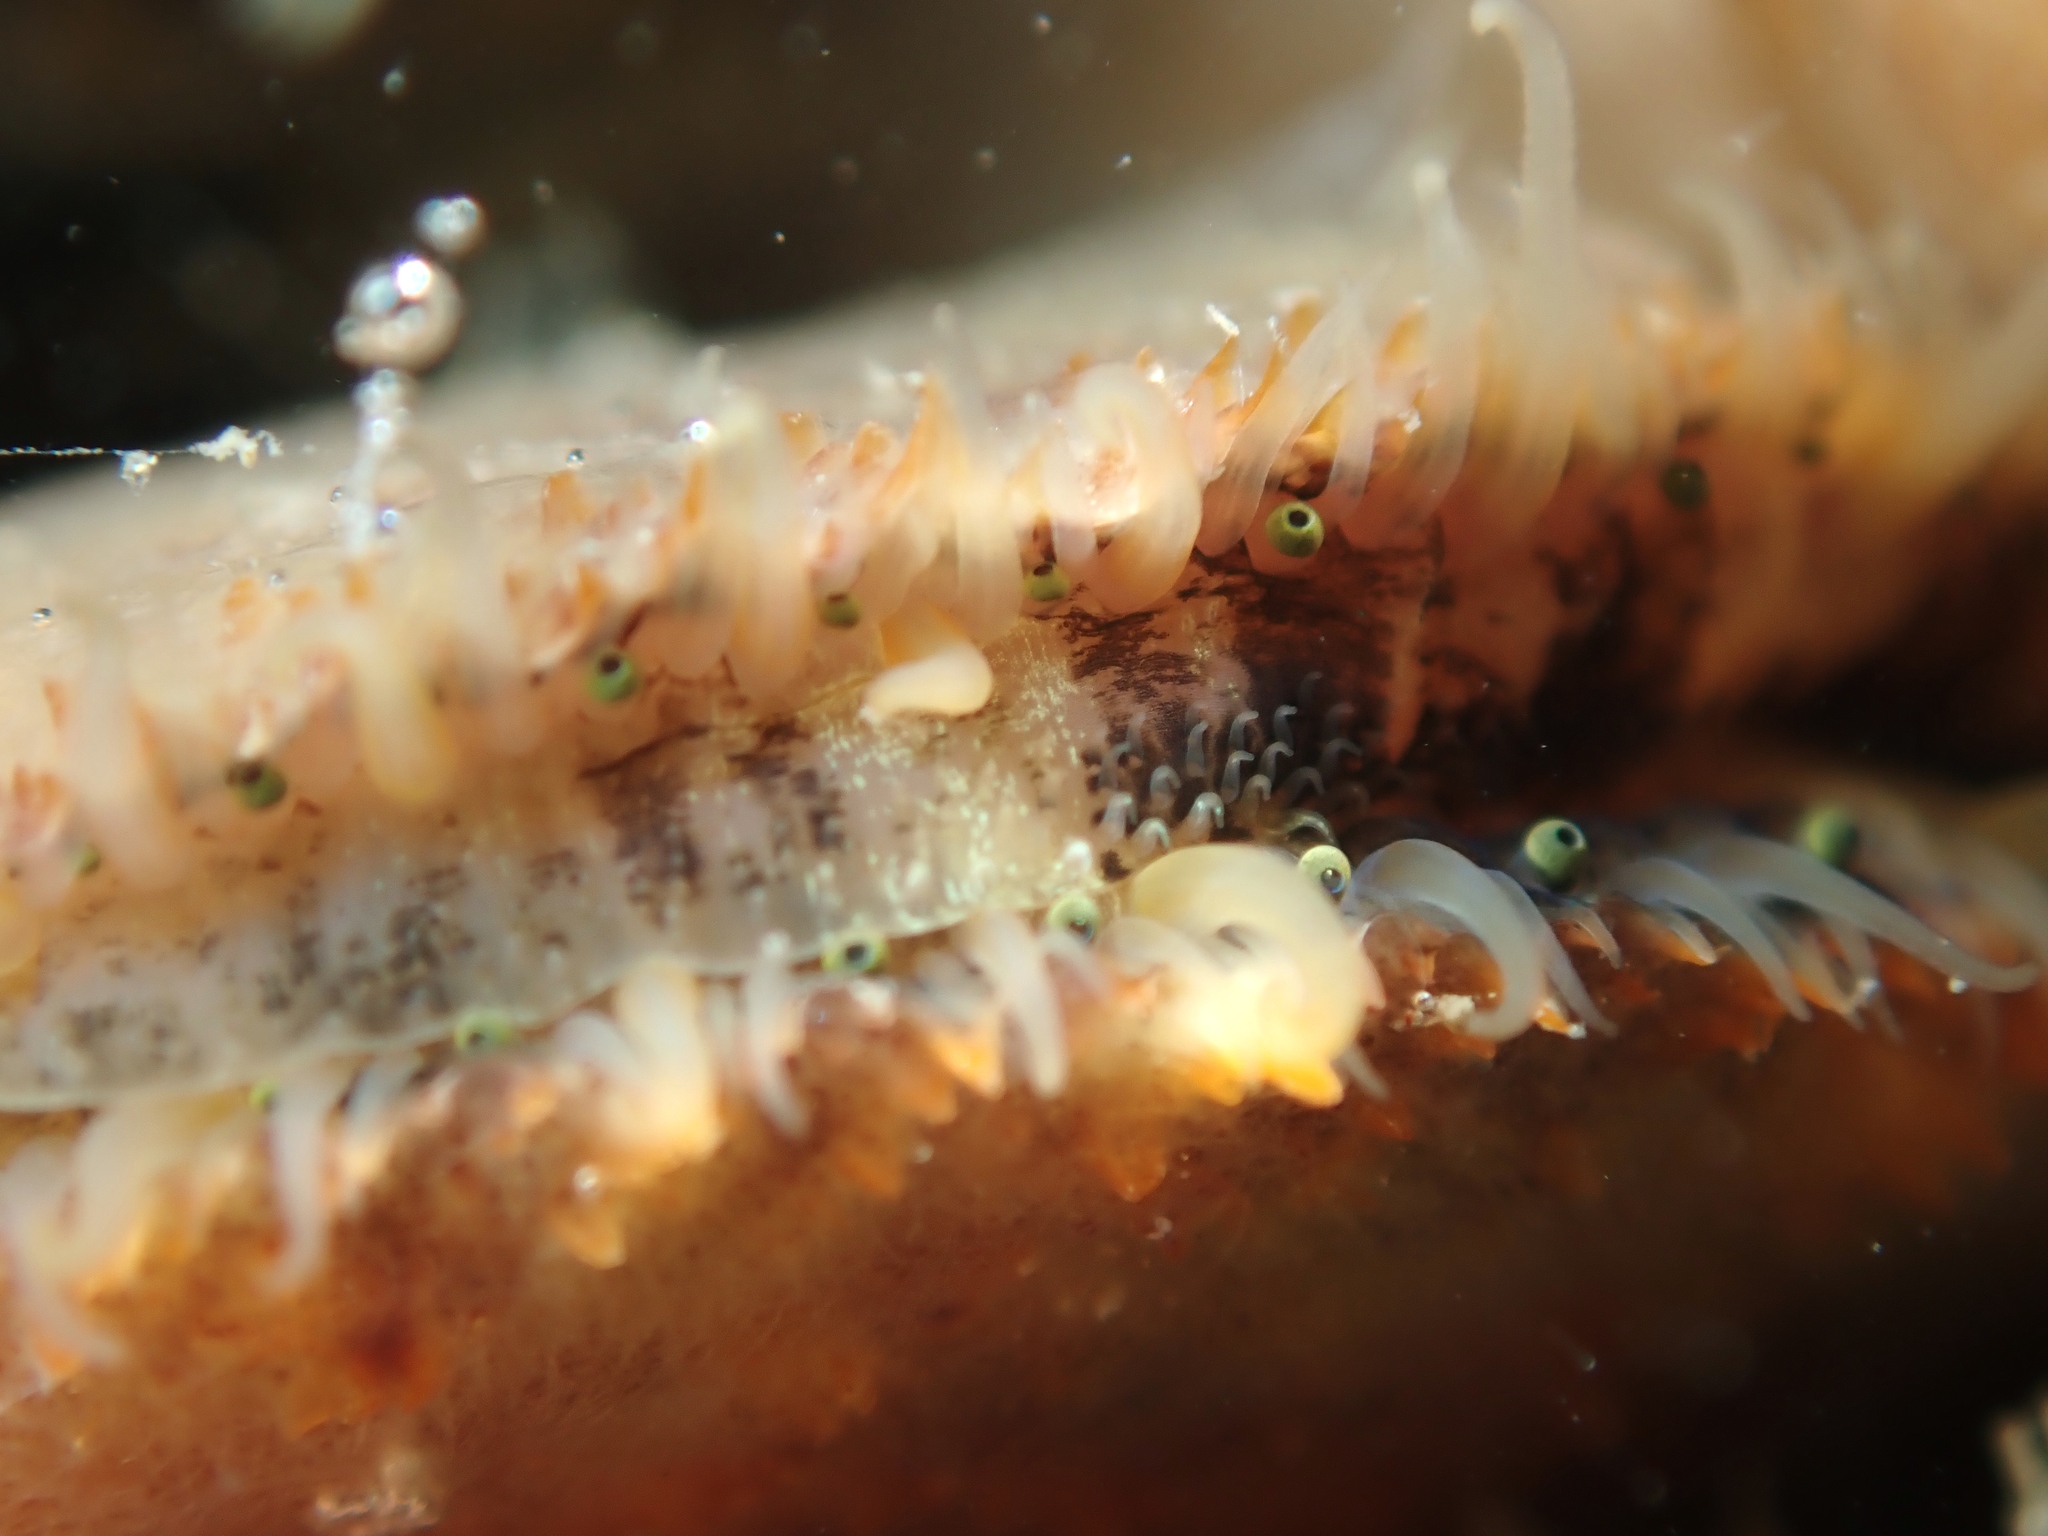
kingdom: Animalia
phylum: Mollusca
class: Bivalvia
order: Pectinida
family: Pectinidae
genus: Talochlamys
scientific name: Talochlamys zelandiae
